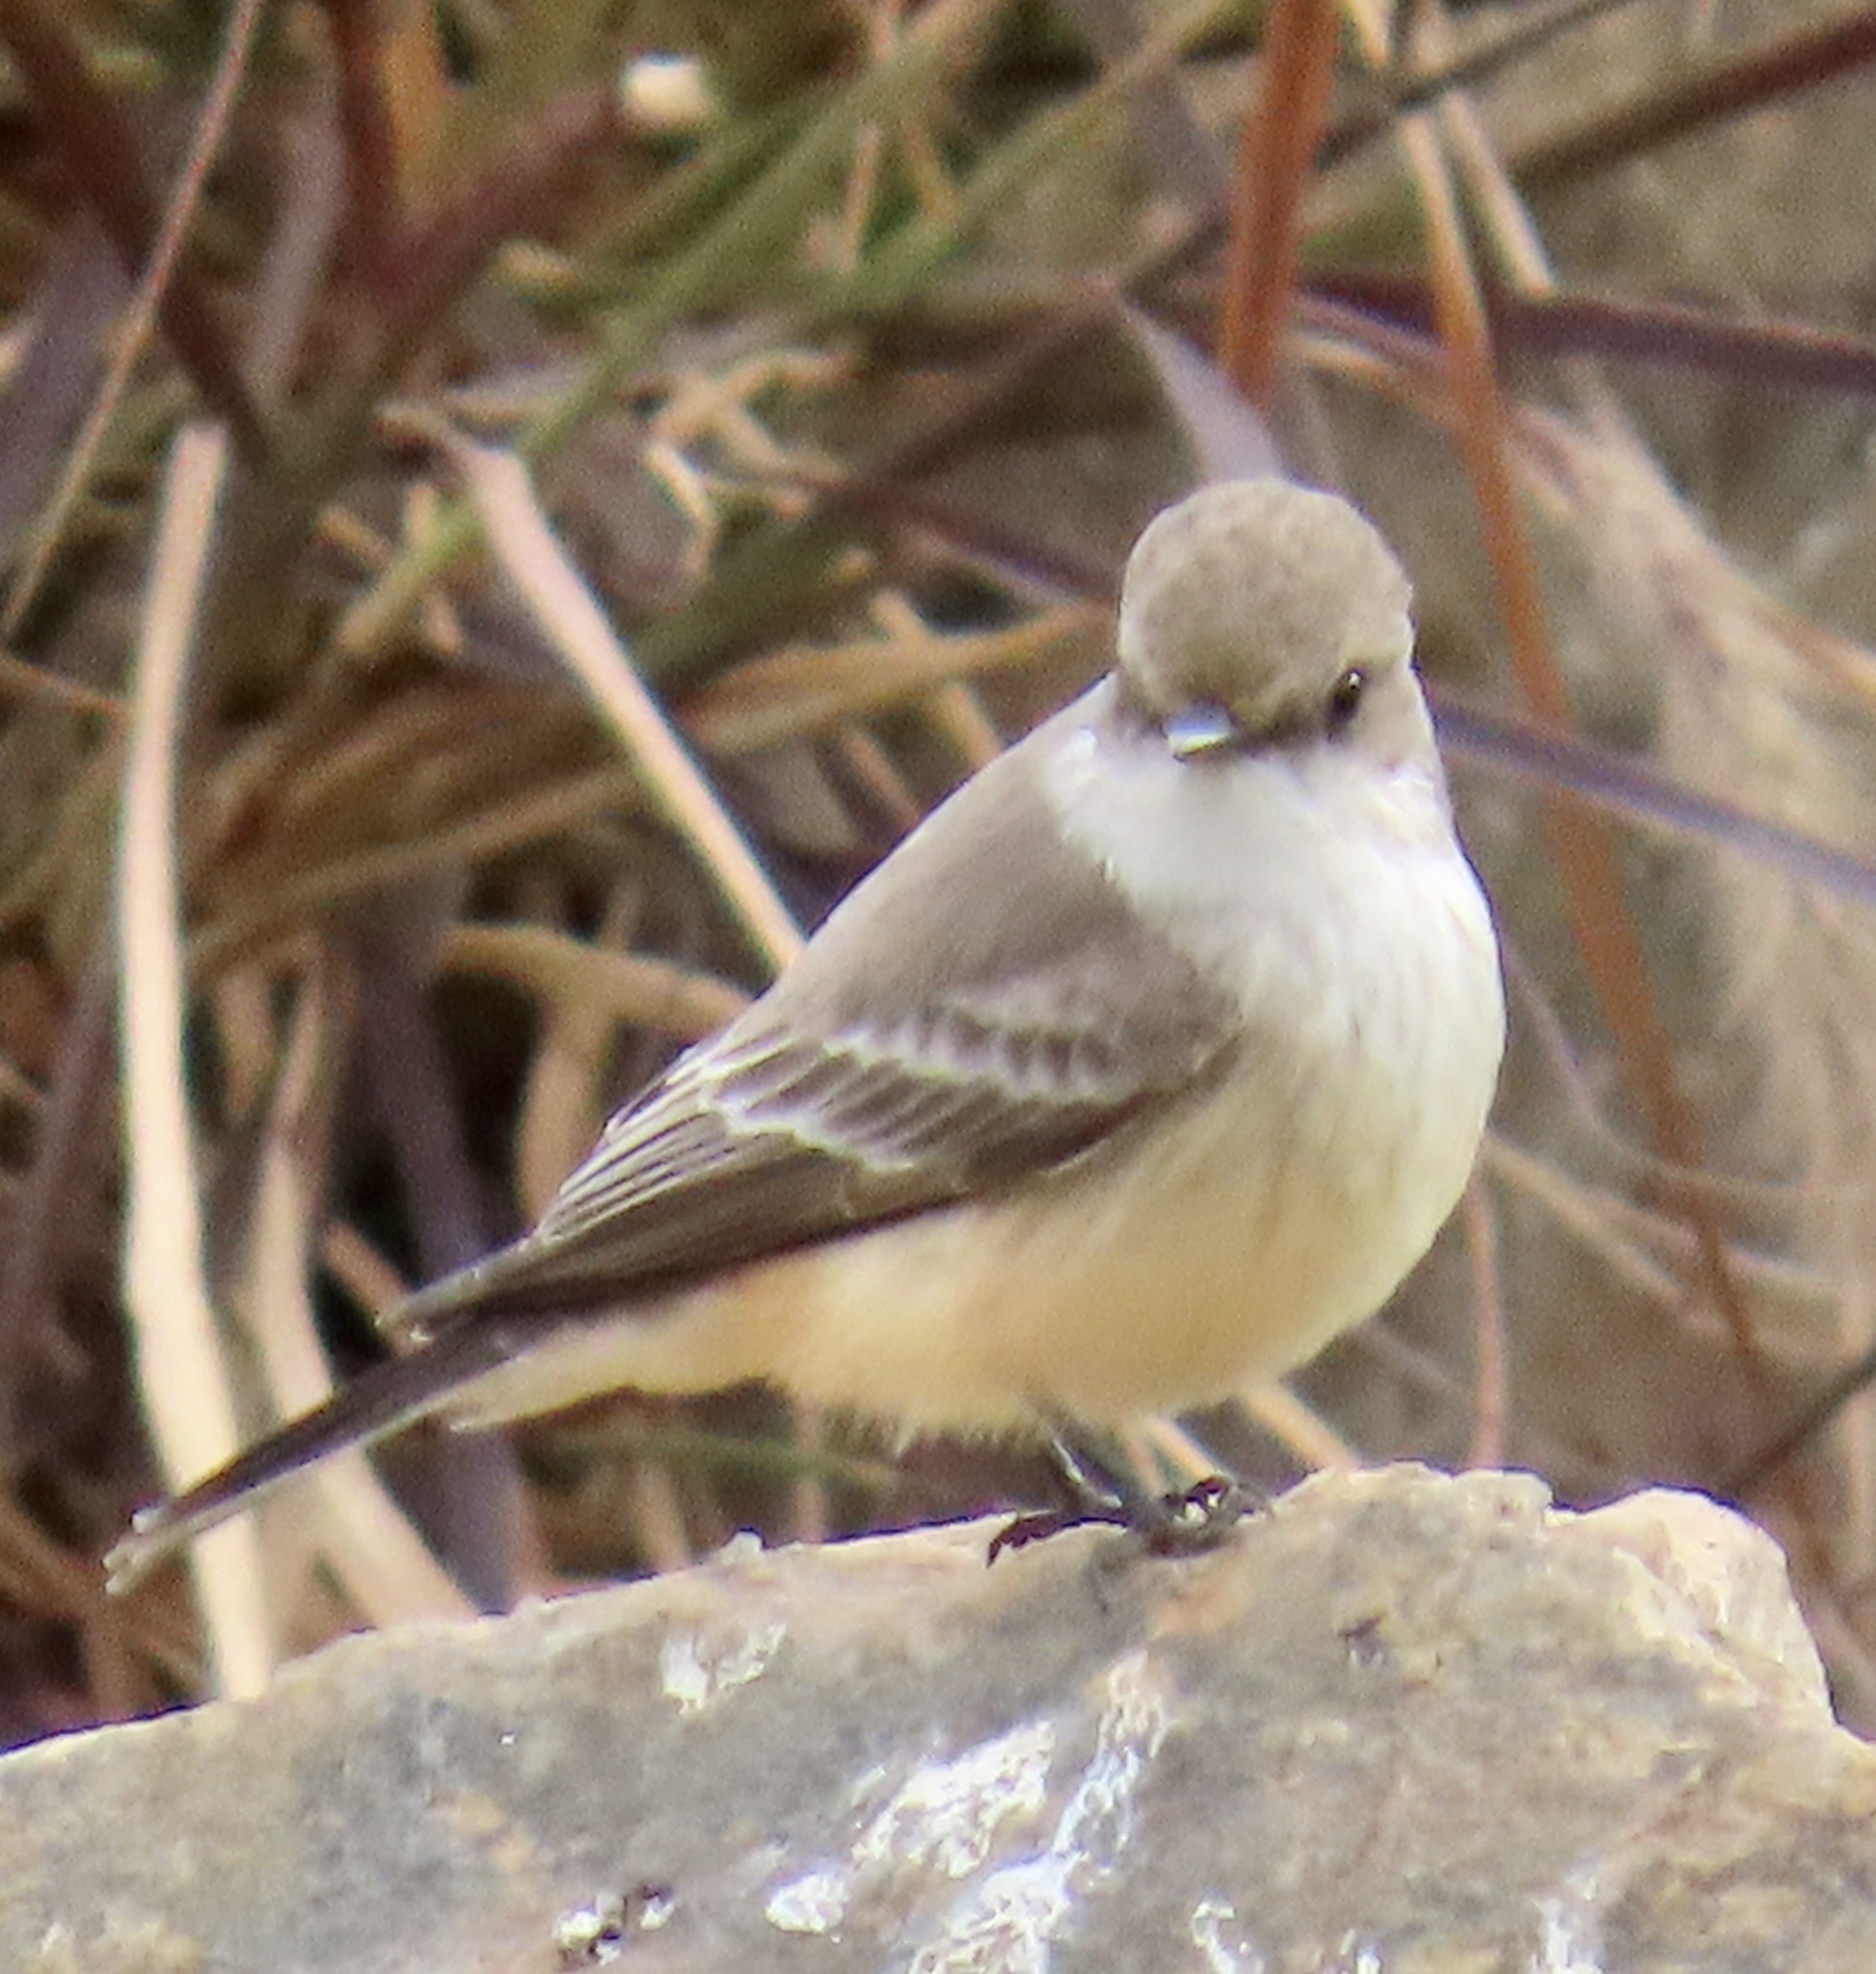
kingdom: Animalia
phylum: Chordata
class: Aves
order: Passeriformes
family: Tyrannidae
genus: Pyrocephalus
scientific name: Pyrocephalus rubinus
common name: Vermilion flycatcher
